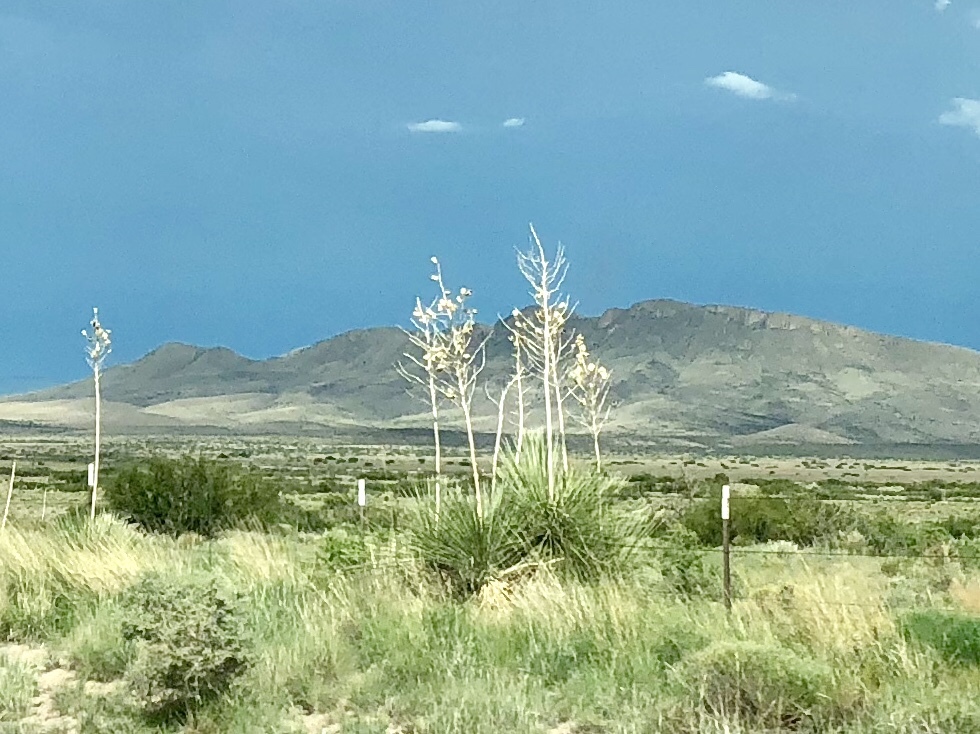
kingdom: Plantae
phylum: Tracheophyta
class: Liliopsida
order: Asparagales
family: Asparagaceae
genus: Yucca
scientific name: Yucca elata
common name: Palmella
